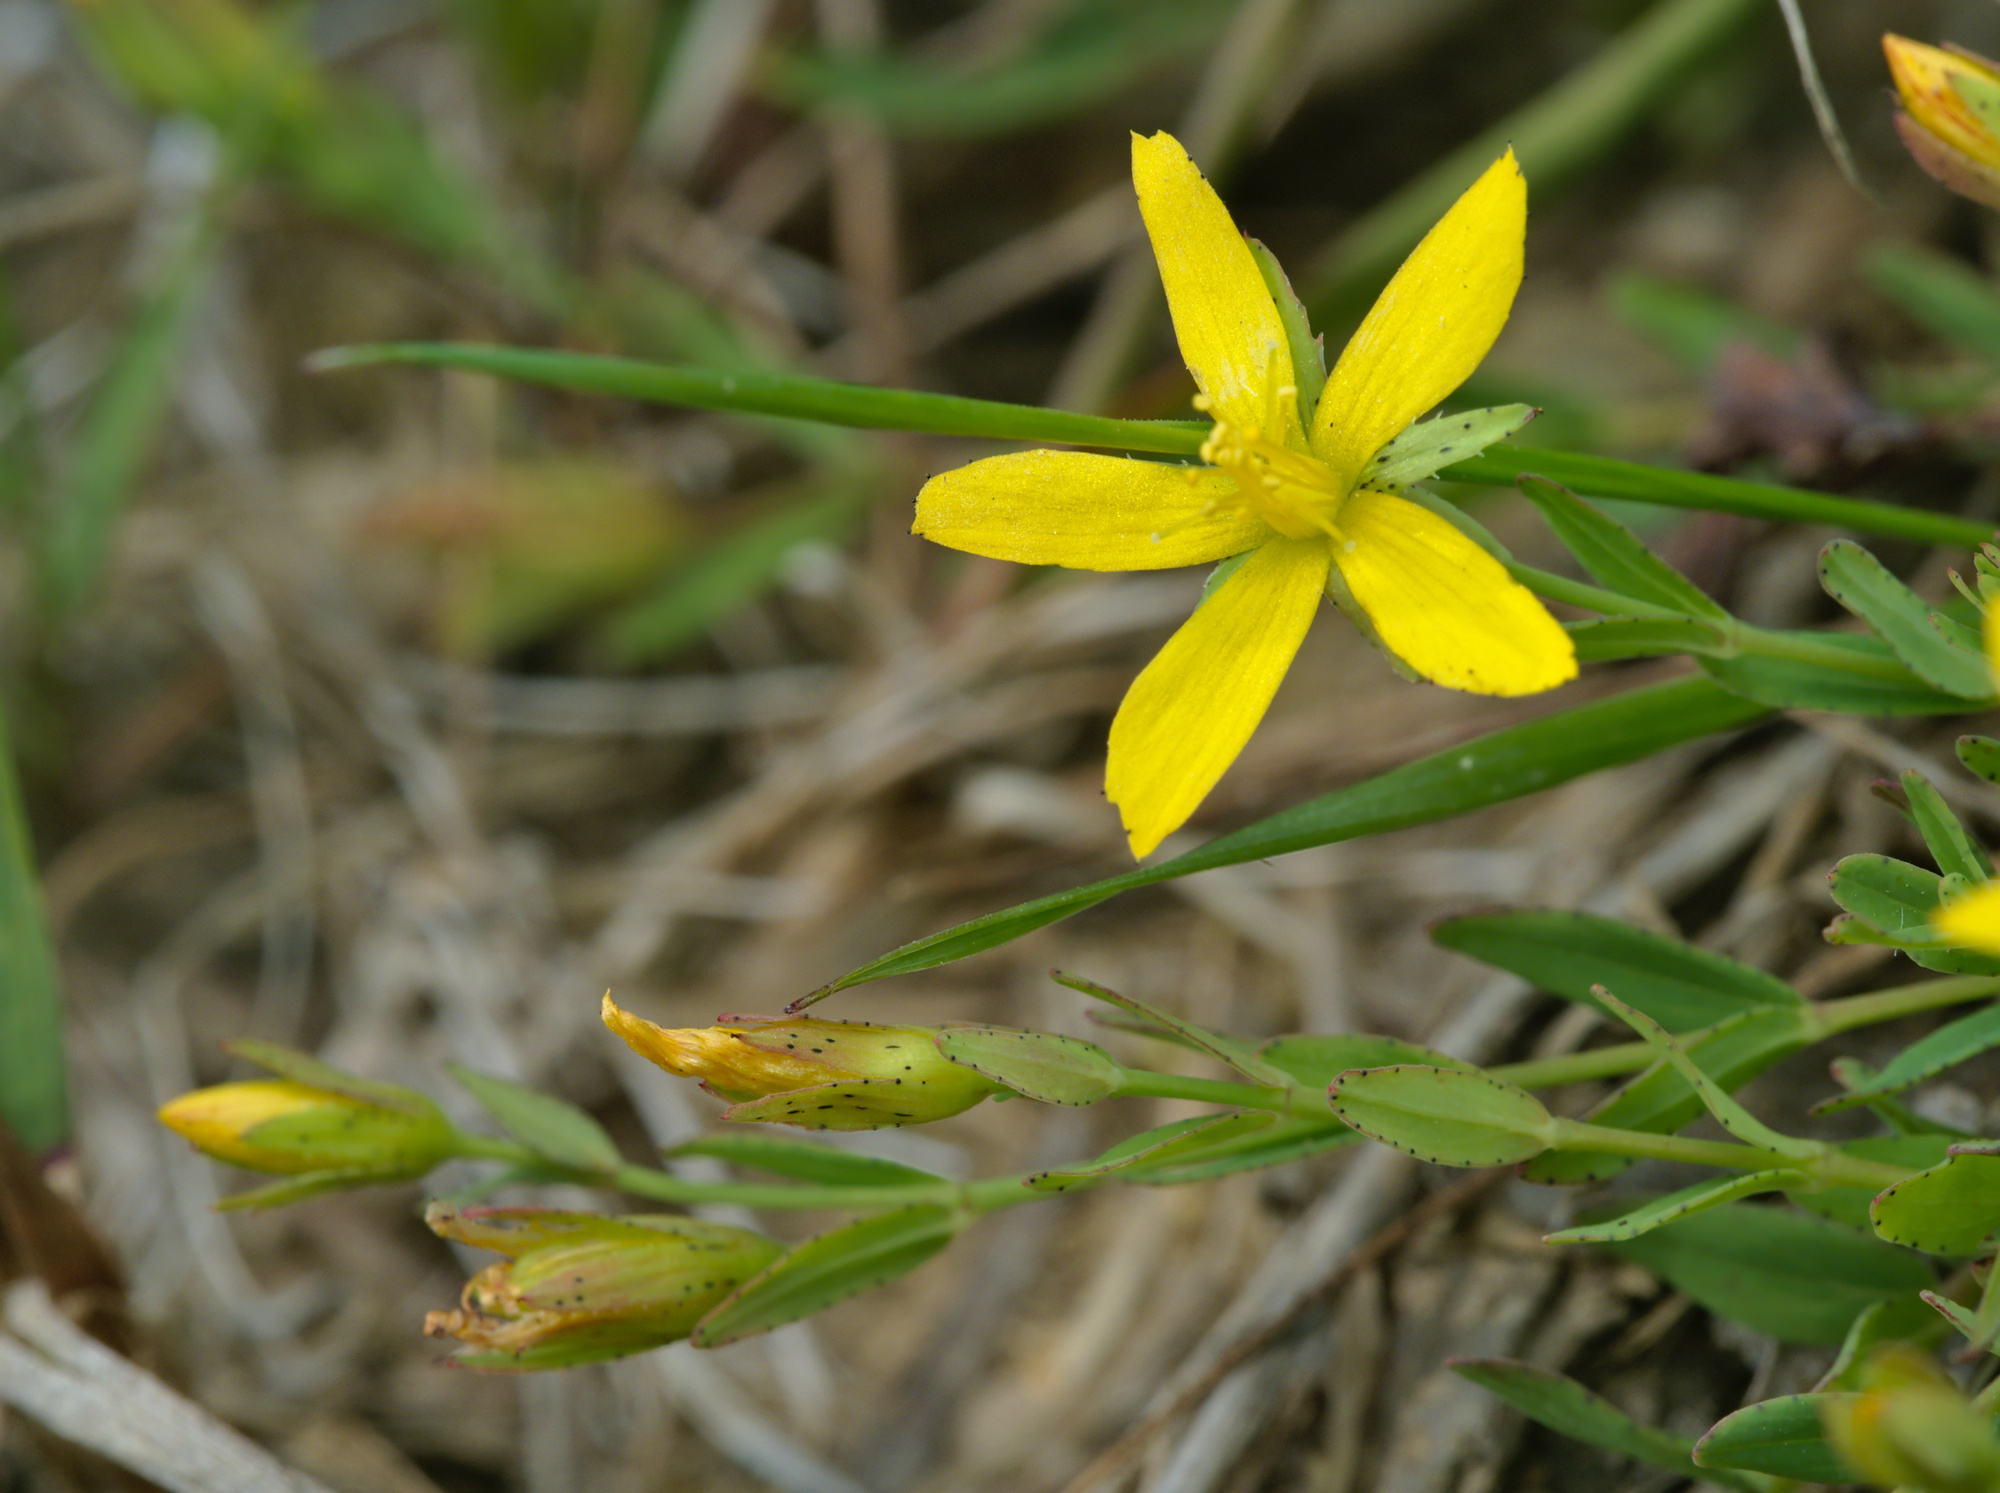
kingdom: Plantae
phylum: Tracheophyta
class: Magnoliopsida
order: Malpighiales
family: Hypericaceae
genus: Hypericum
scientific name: Hypericum humifusum
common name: Trailing st. john's-wort
